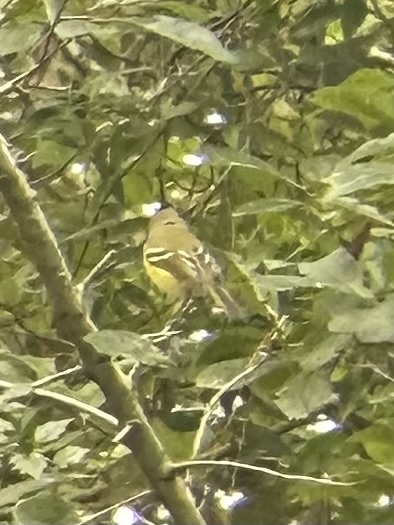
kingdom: Animalia
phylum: Chordata
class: Aves
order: Passeriformes
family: Vireonidae
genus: Vireo
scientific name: Vireo griseus
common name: White-eyed vireo
